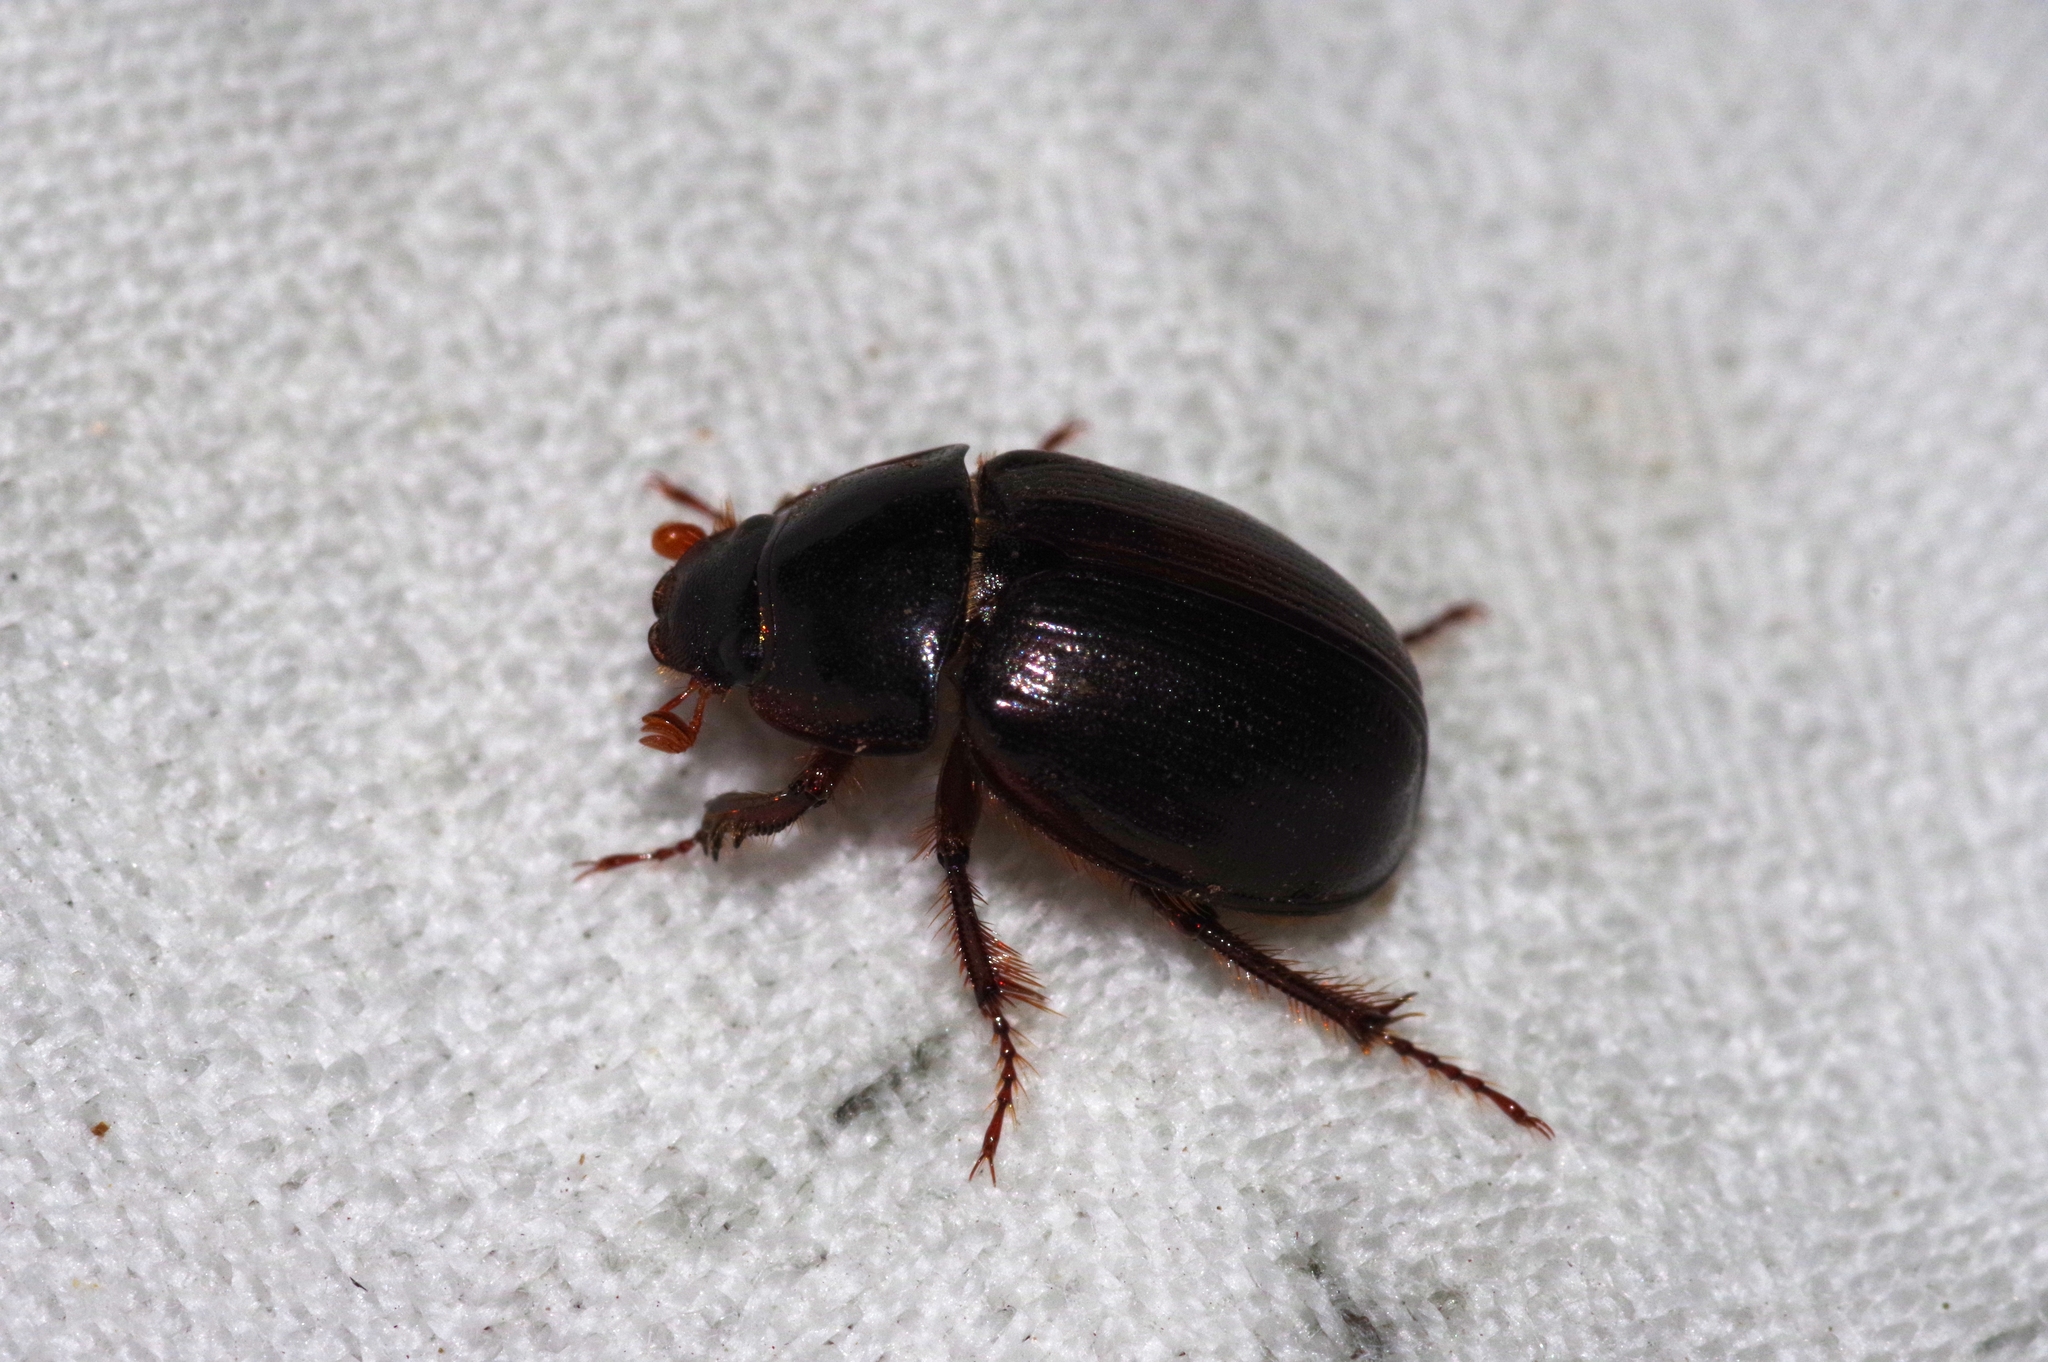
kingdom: Animalia
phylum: Arthropoda
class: Insecta
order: Coleoptera
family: Hybosoridae
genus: Phaeochrous
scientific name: Phaeochrous emarginatus
